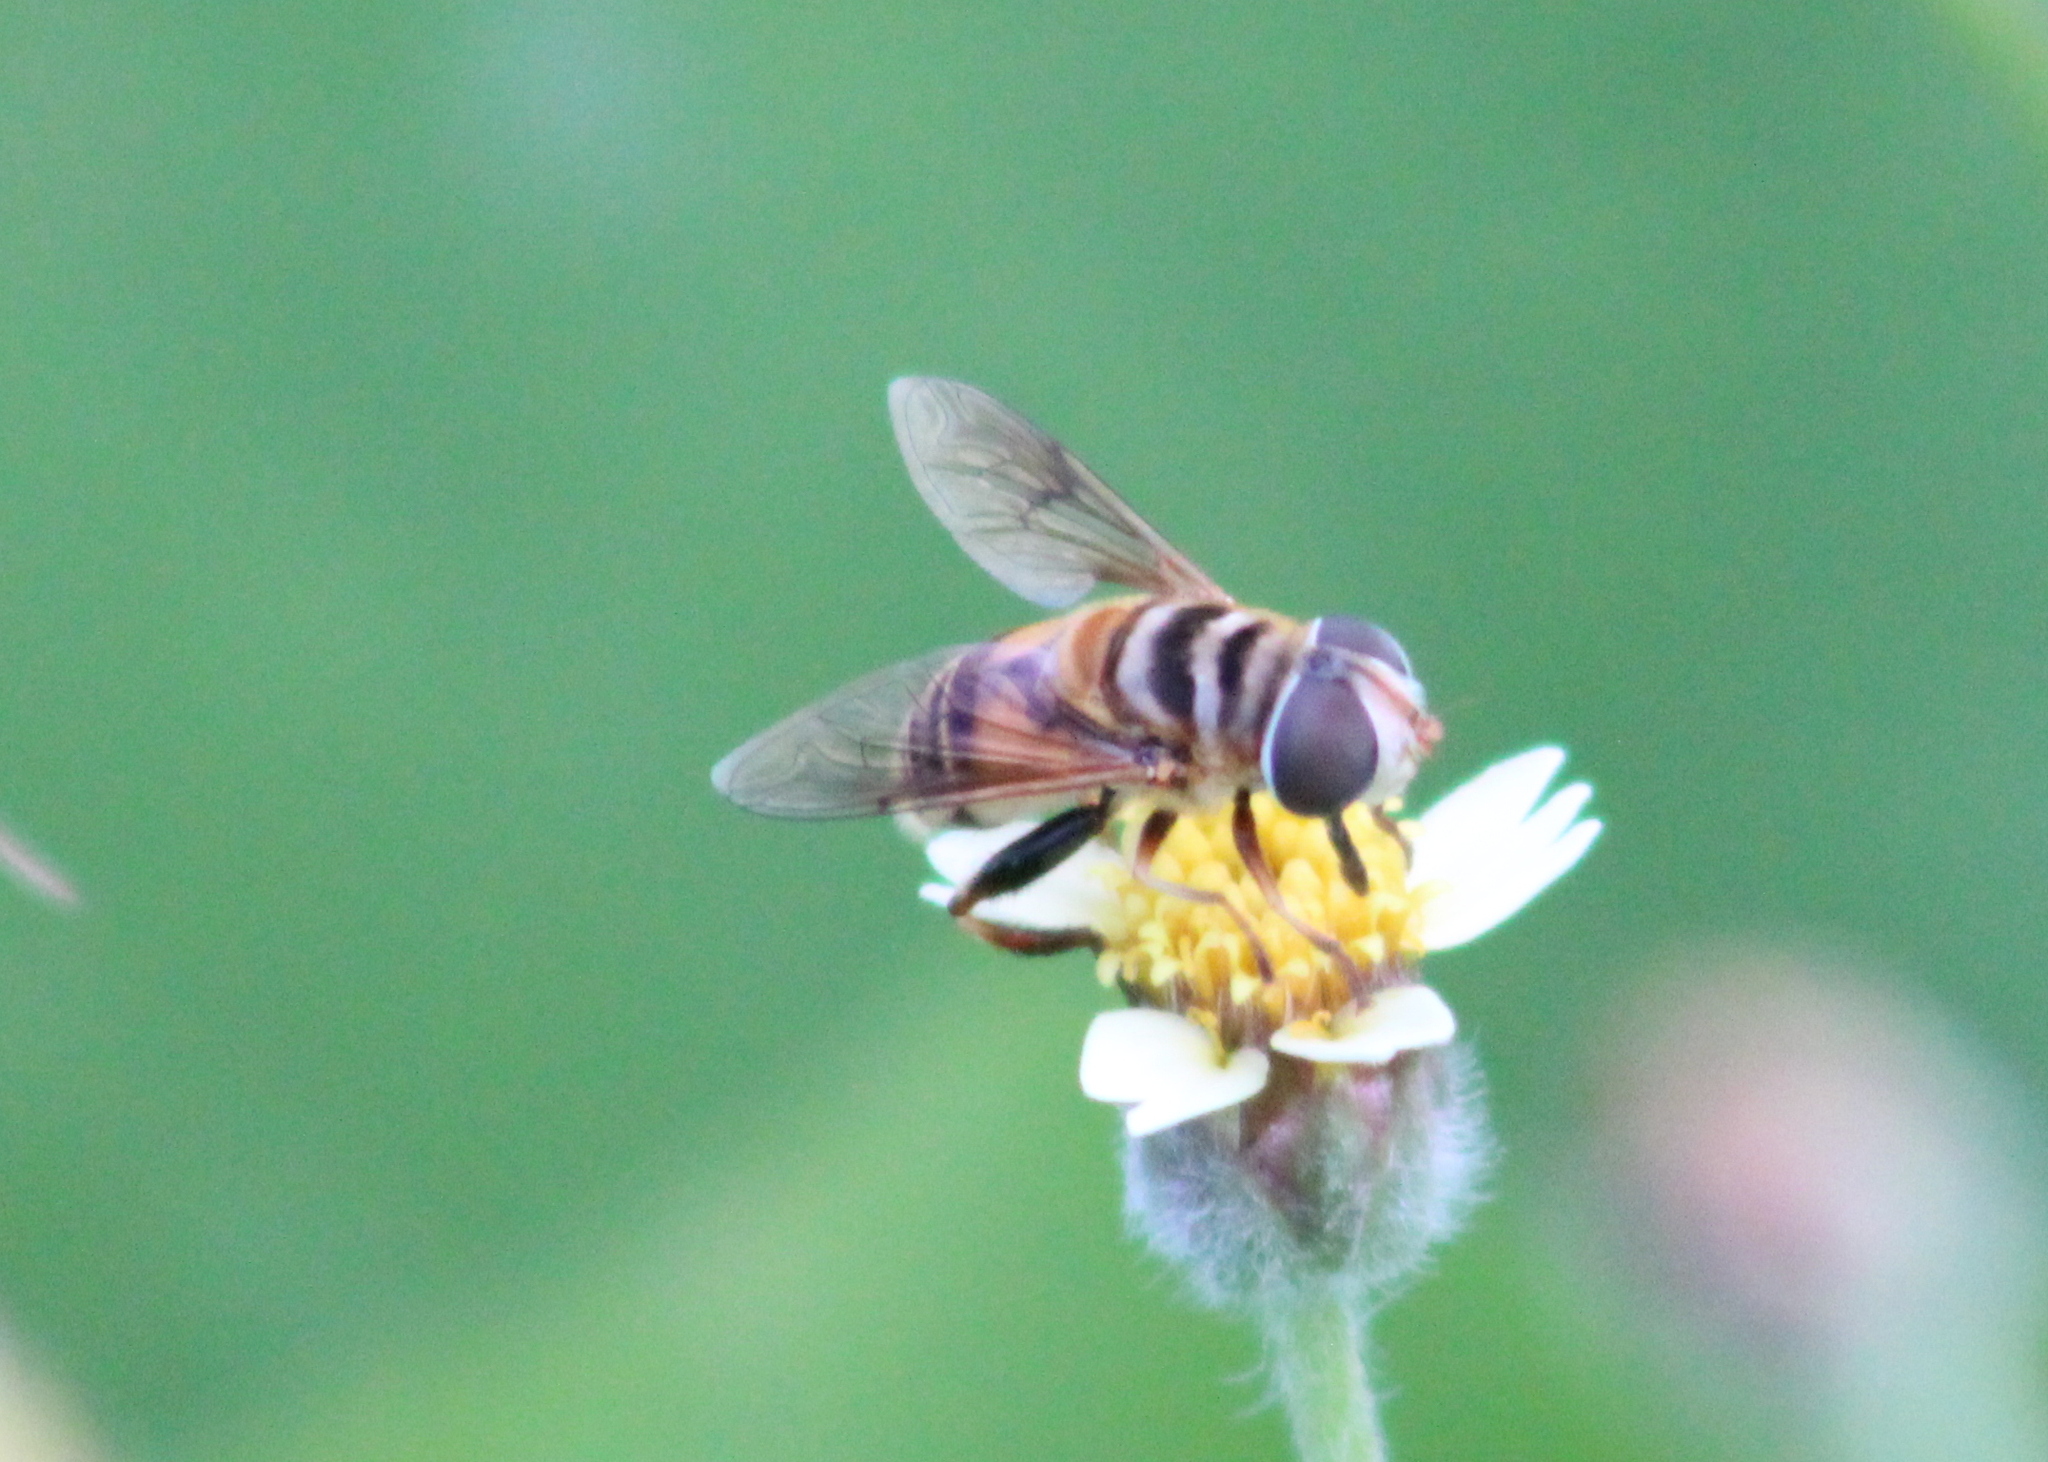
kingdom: Animalia
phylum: Arthropoda
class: Insecta
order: Diptera
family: Syrphidae
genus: Palpada
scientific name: Palpada vinetorum
